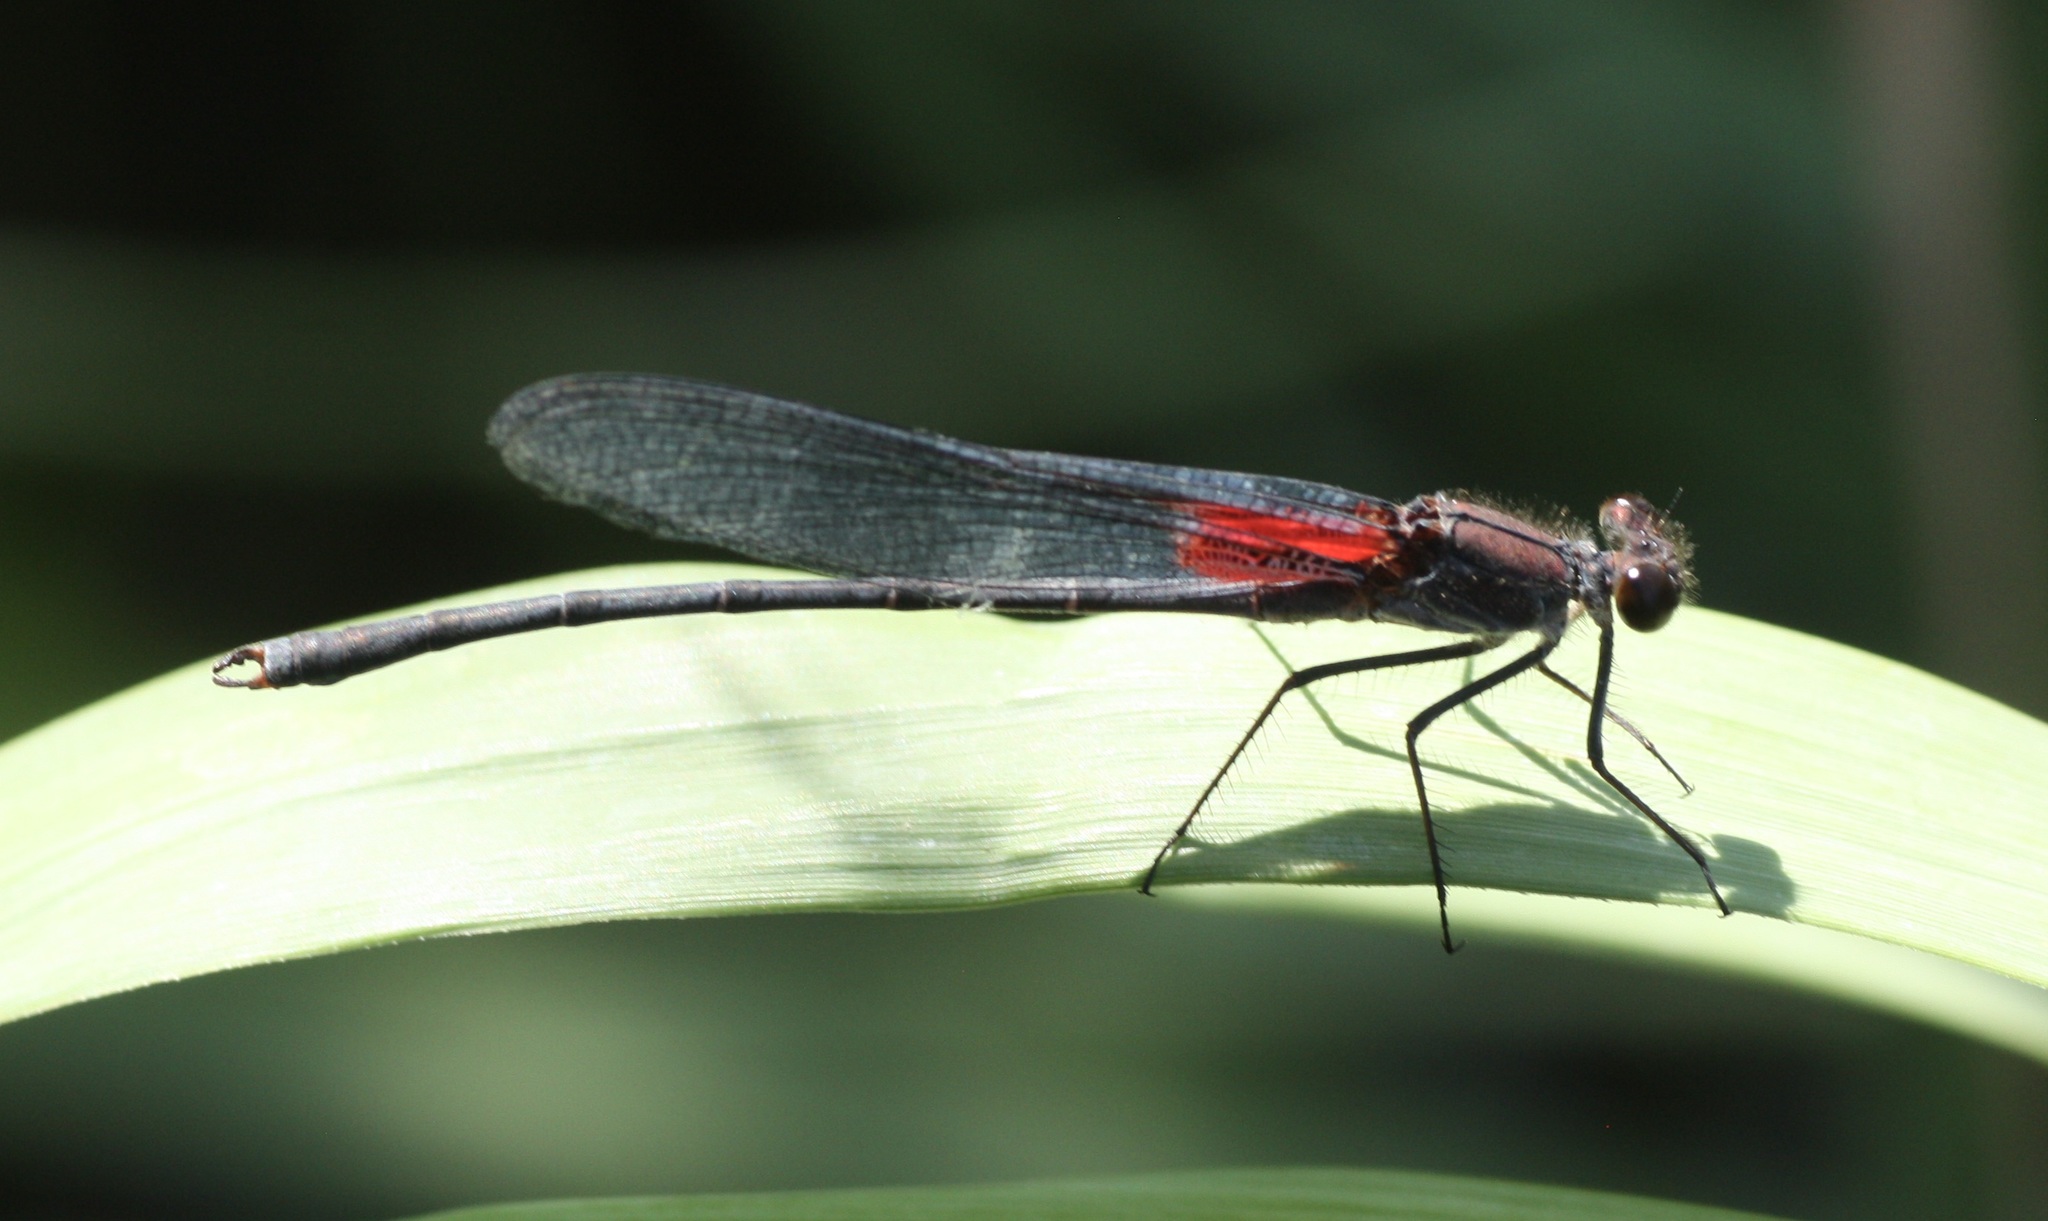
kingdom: Animalia
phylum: Arthropoda
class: Insecta
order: Odonata
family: Calopterygidae
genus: Hetaerina
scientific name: Hetaerina americana
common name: American rubyspot
